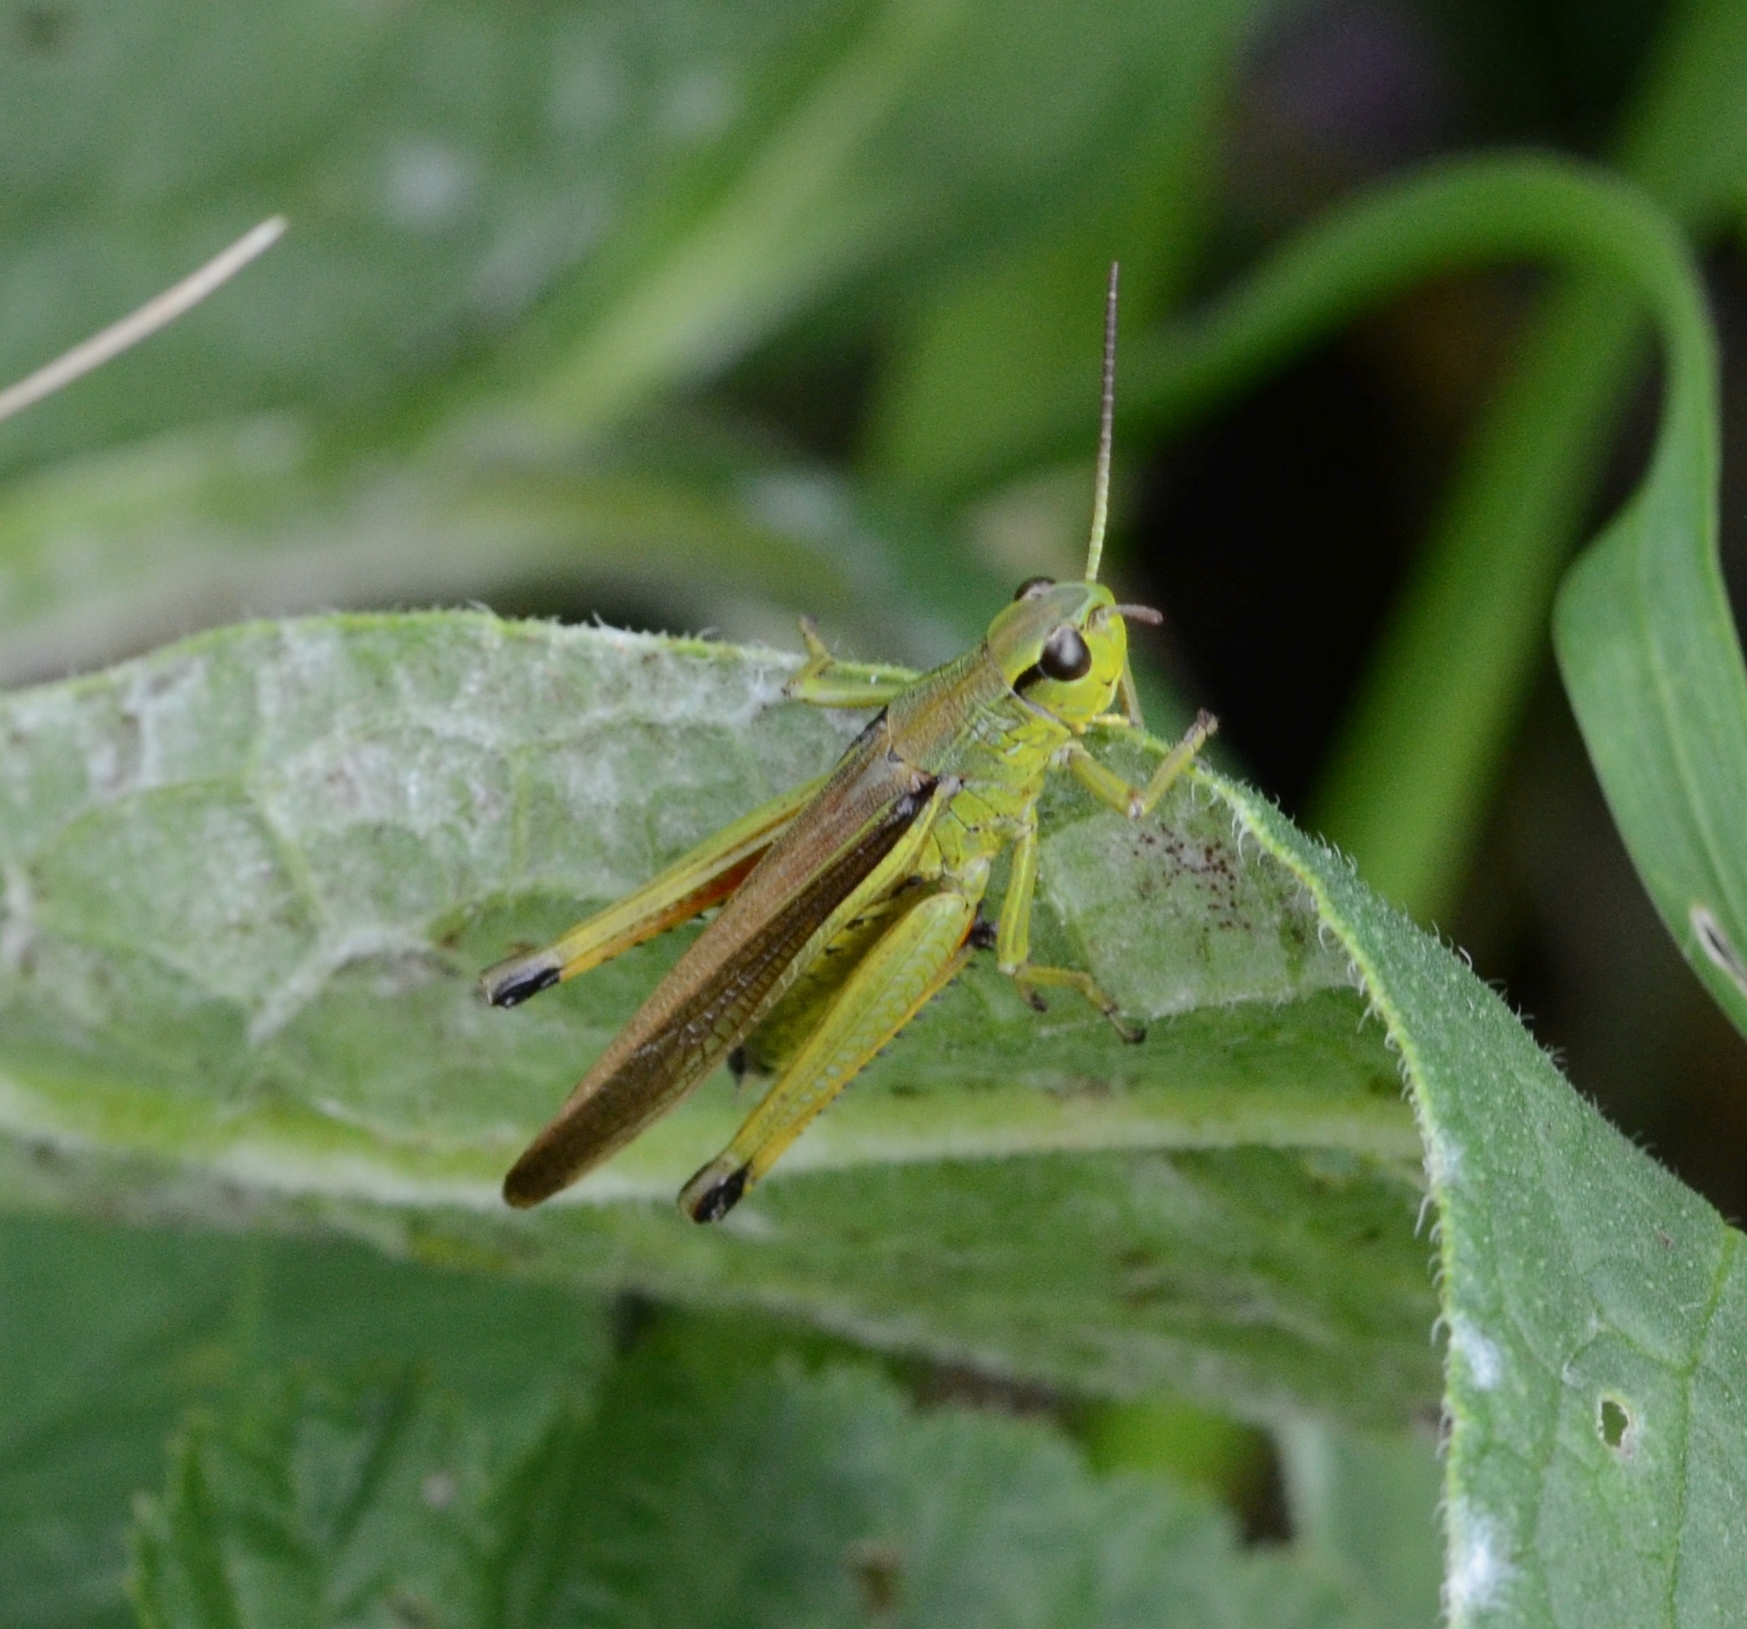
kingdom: Animalia
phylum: Arthropoda
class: Insecta
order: Orthoptera
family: Acrididae
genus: Stethophyma
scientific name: Stethophyma grossum
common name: Large marsh grasshopper
